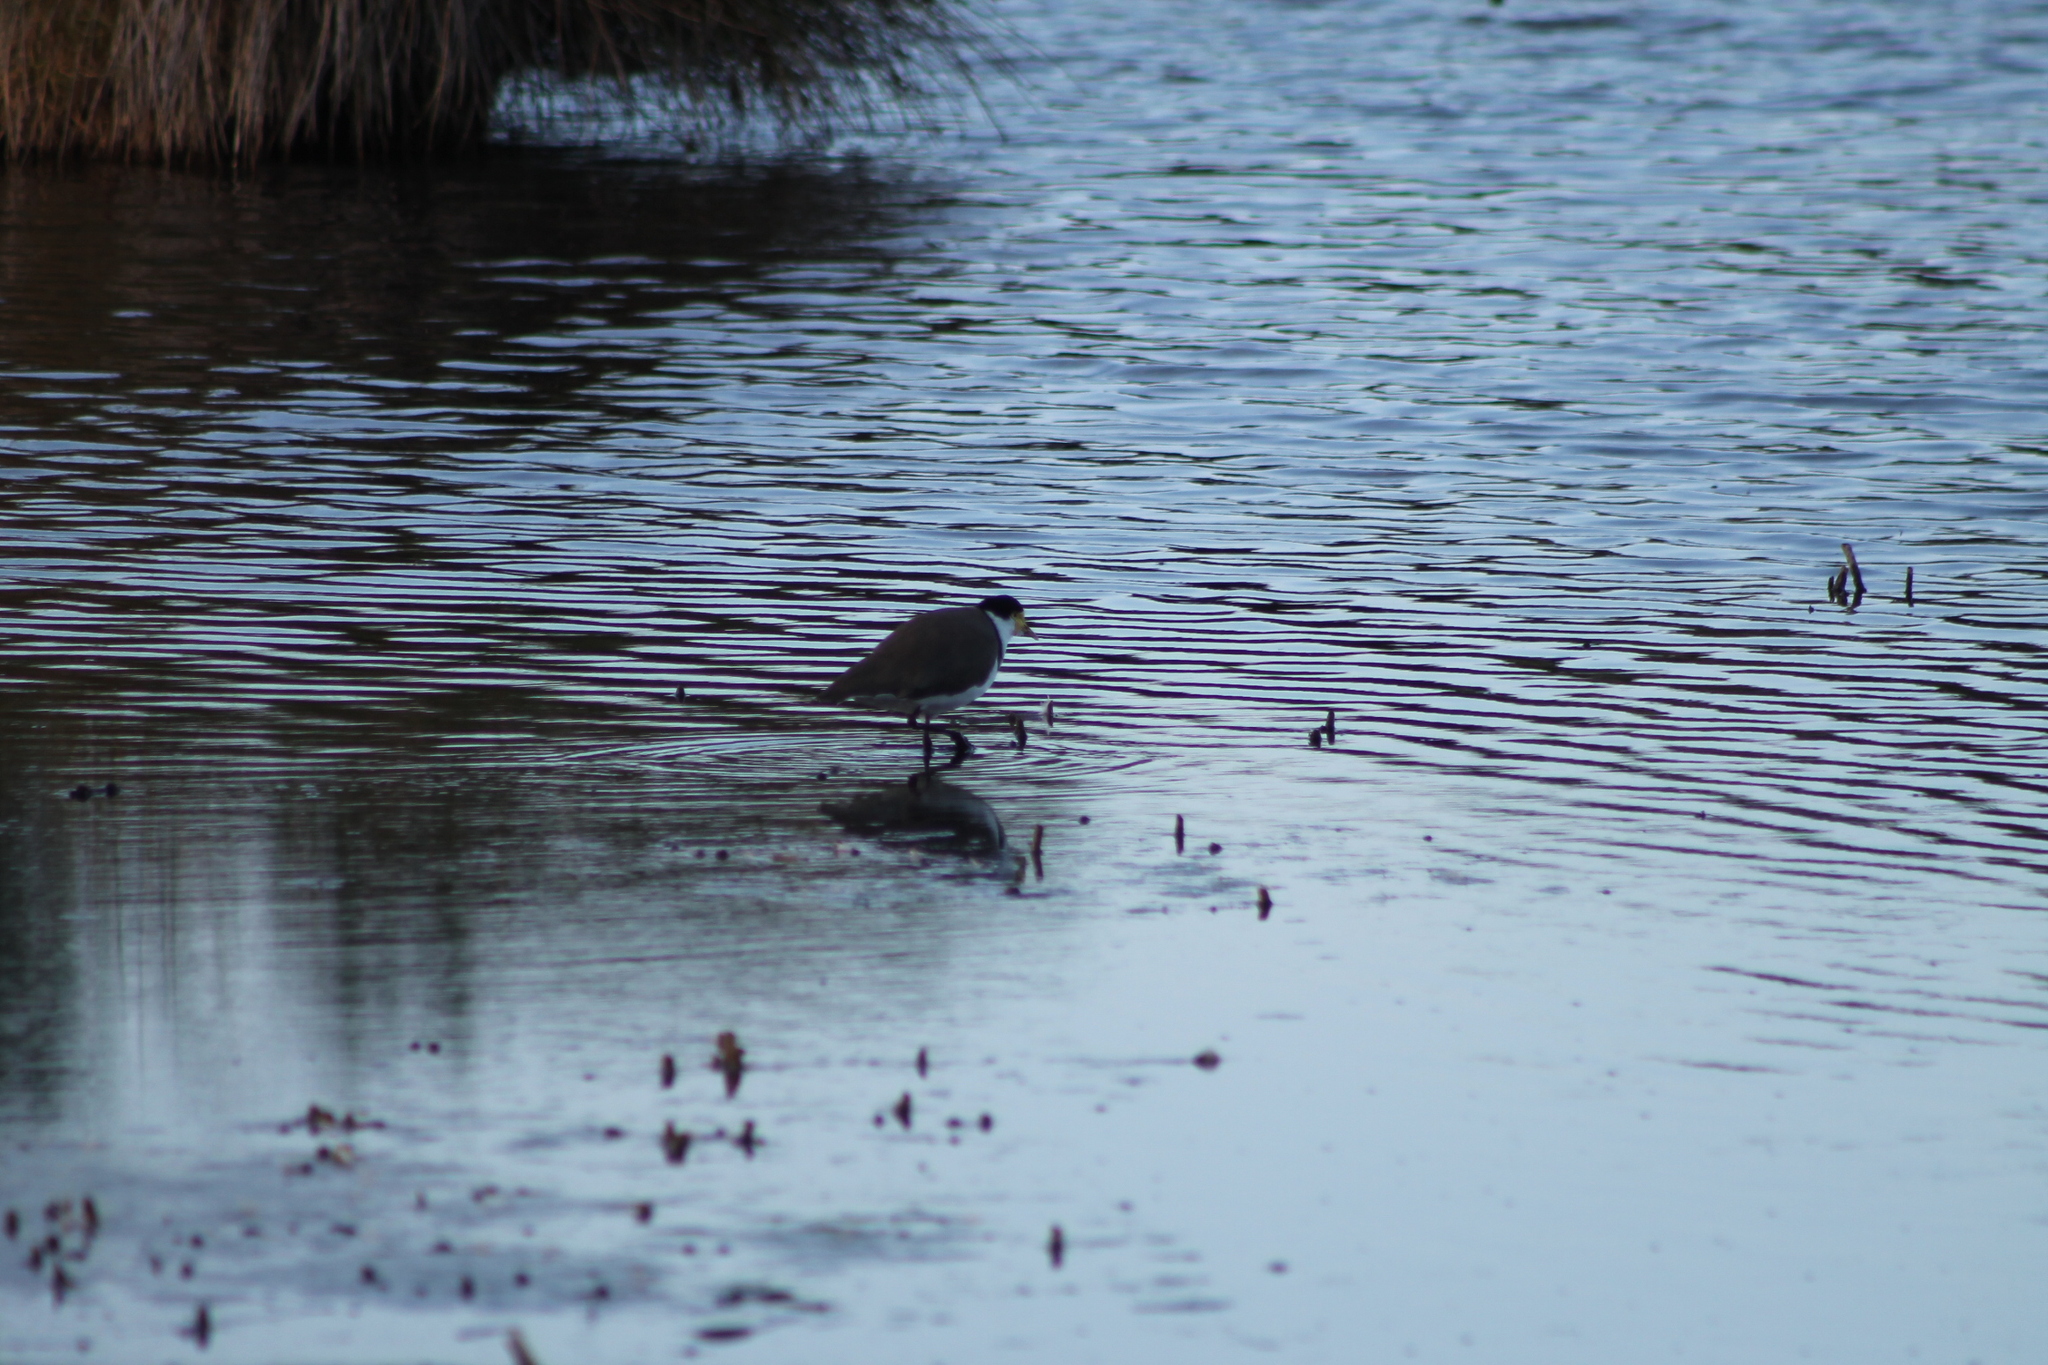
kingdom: Animalia
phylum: Chordata
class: Aves
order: Charadriiformes
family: Charadriidae
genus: Vanellus
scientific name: Vanellus miles
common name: Masked lapwing
